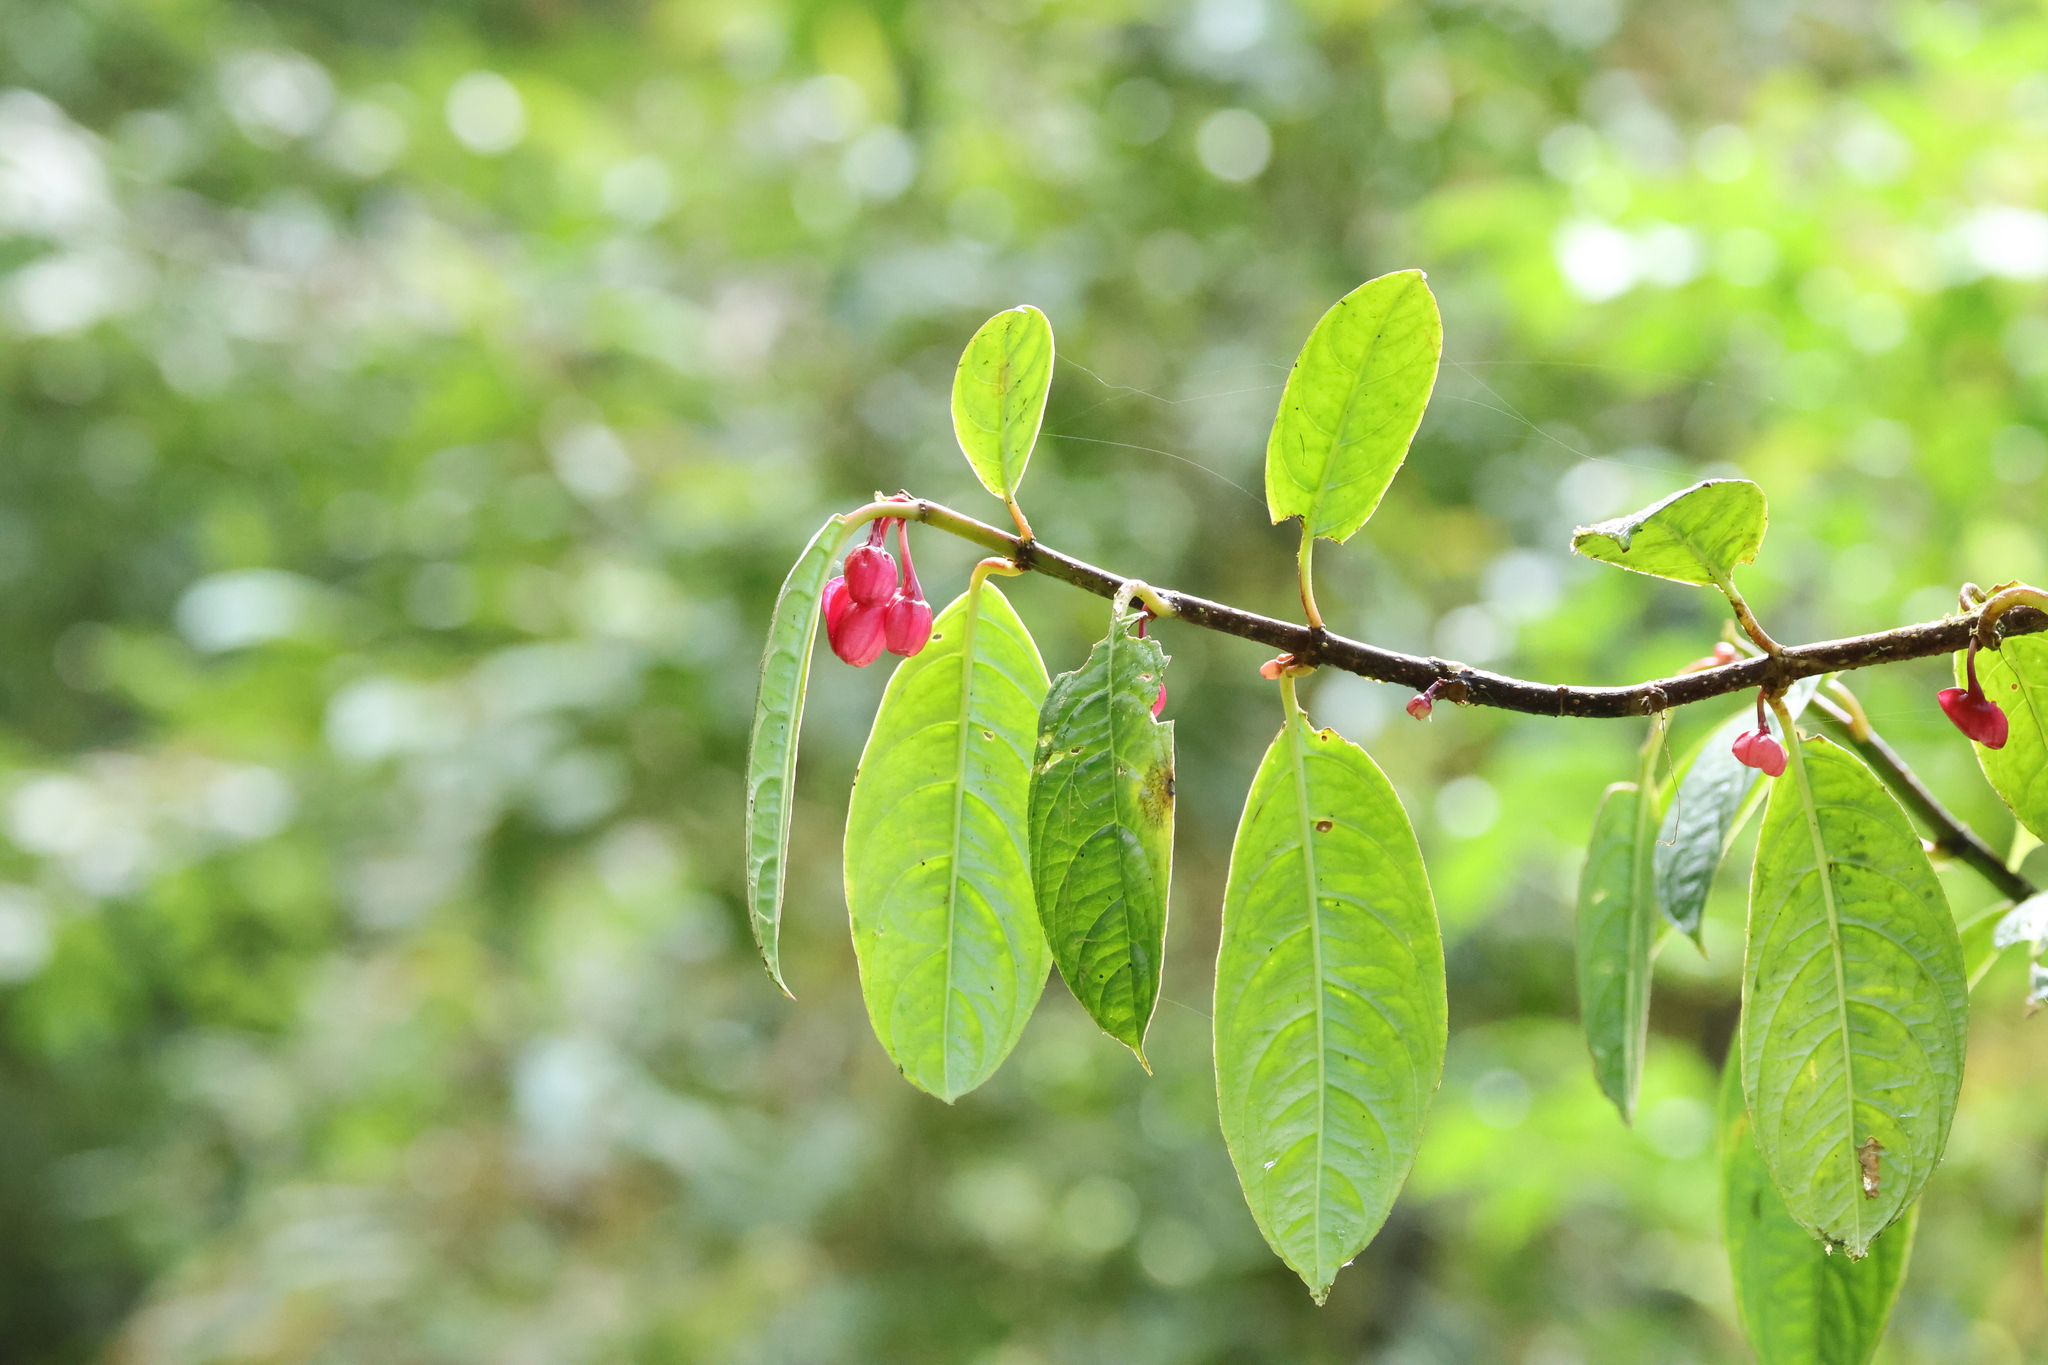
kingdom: Plantae
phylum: Tracheophyta
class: Magnoliopsida
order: Lamiales
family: Gesneriaceae
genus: Drymonia
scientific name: Drymonia conchocalyx
